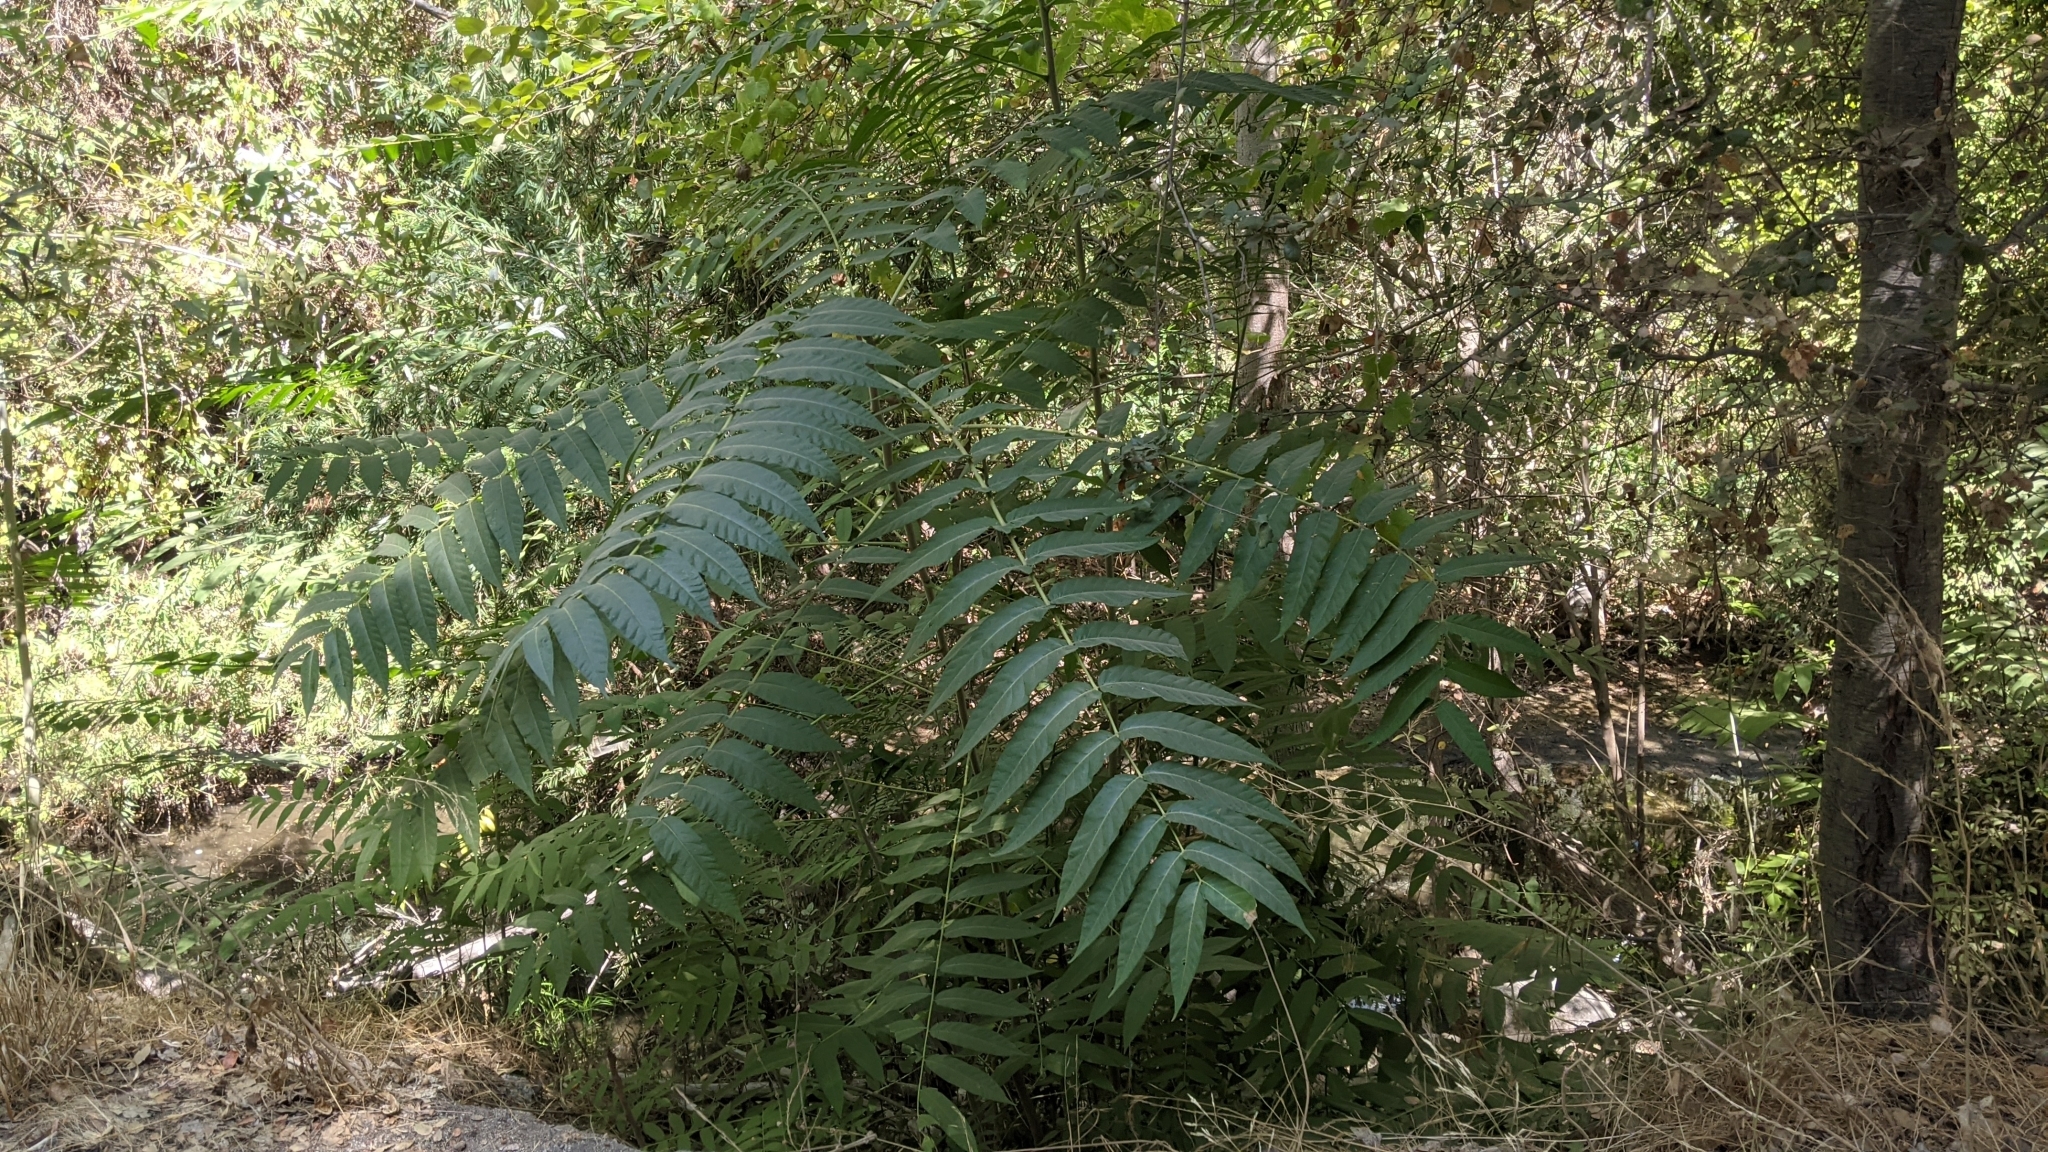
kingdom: Plantae
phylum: Tracheophyta
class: Magnoliopsida
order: Sapindales
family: Simaroubaceae
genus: Ailanthus
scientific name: Ailanthus altissima
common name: Tree-of-heaven
